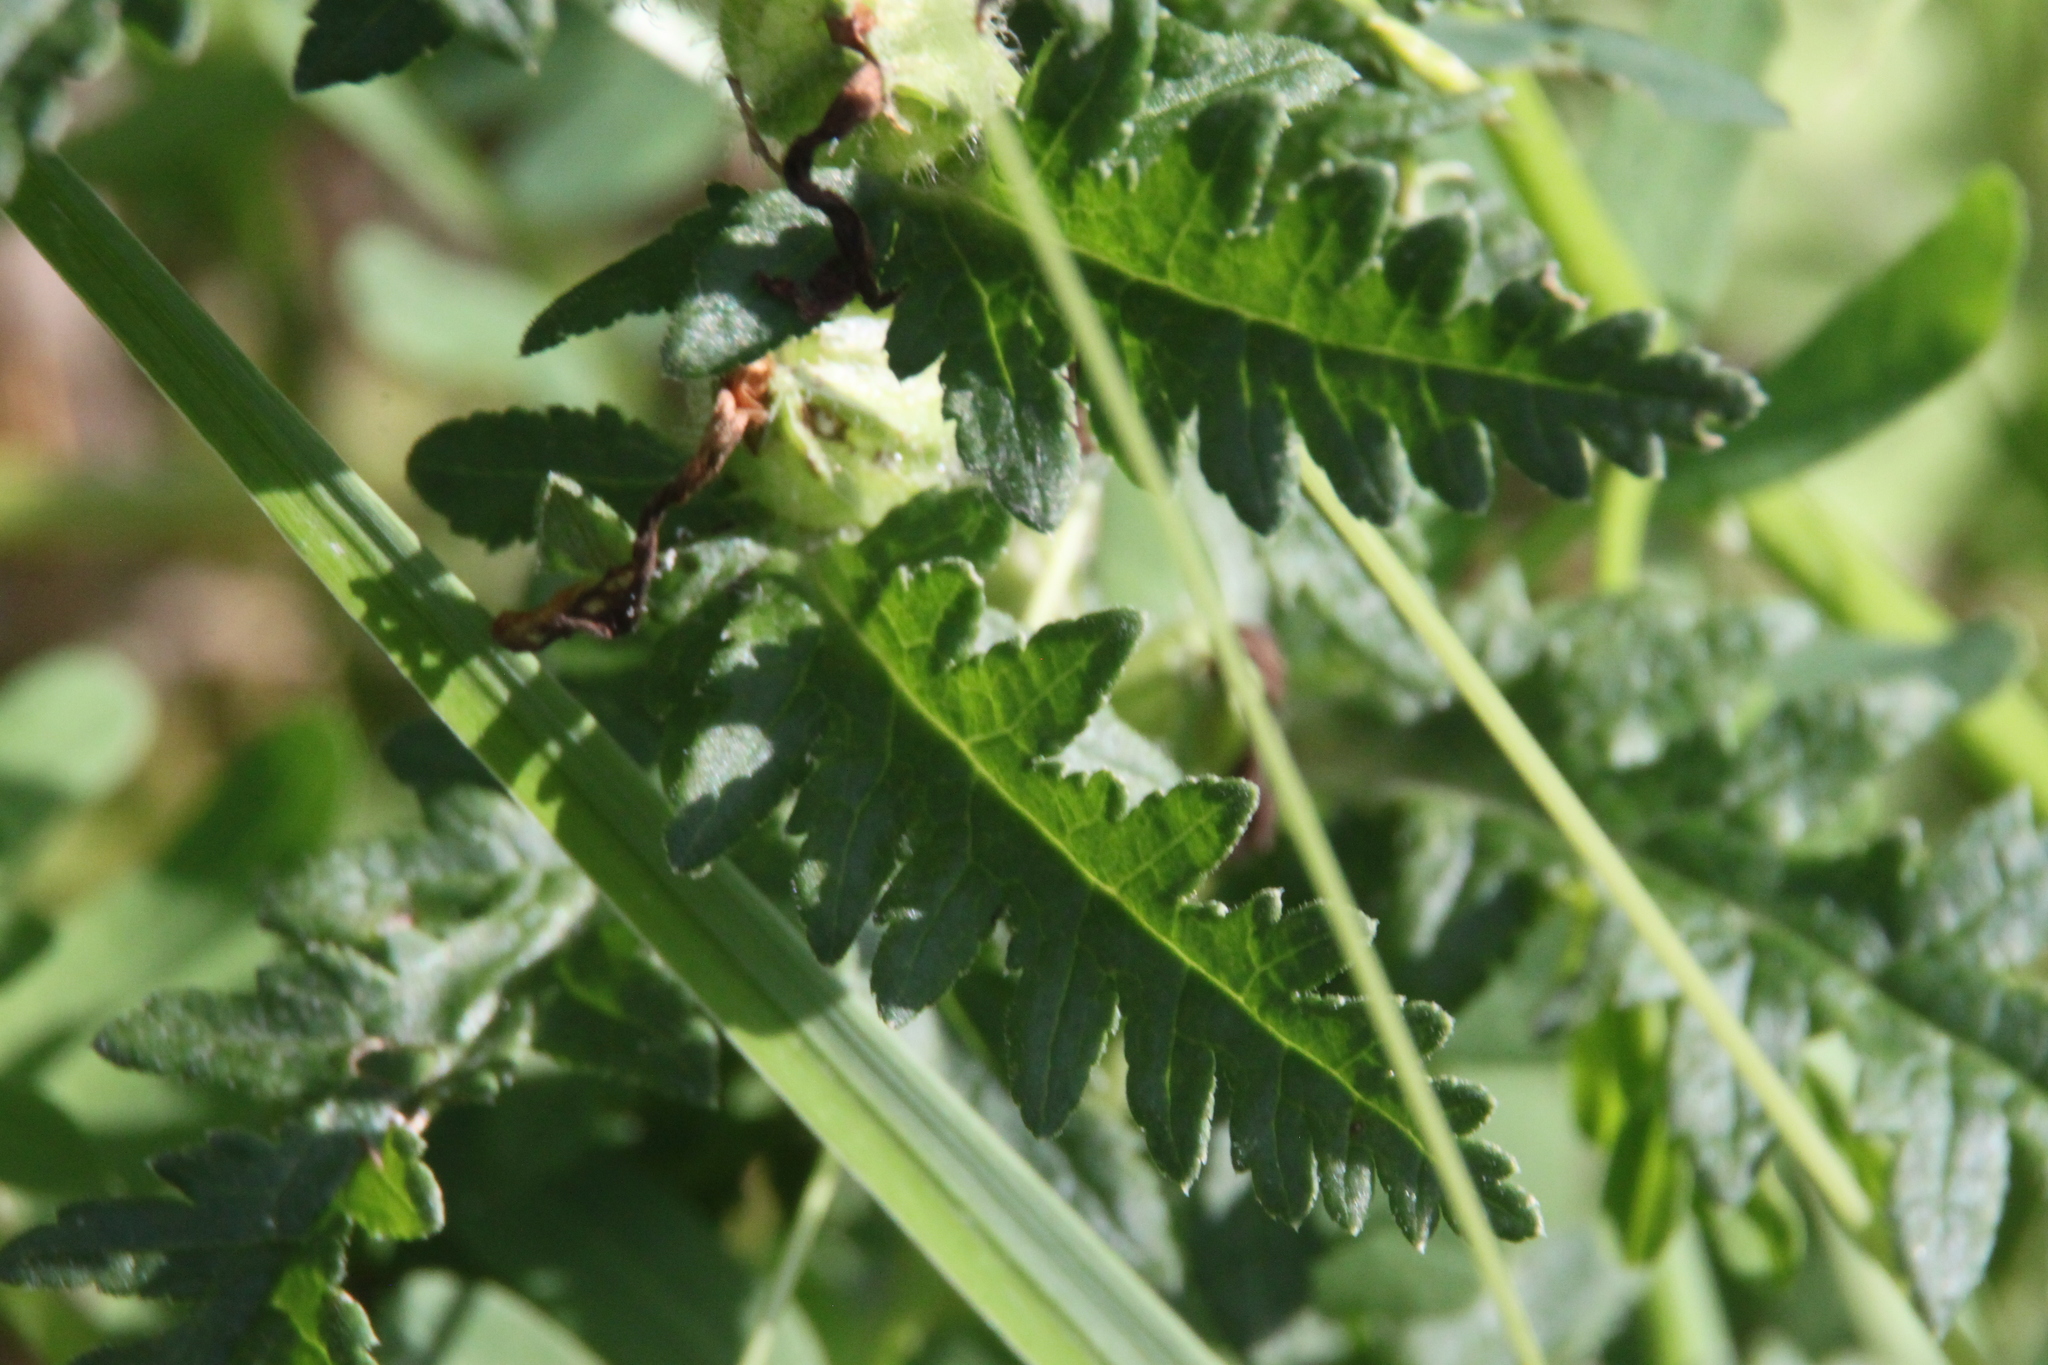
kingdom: Plantae
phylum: Tracheophyta
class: Magnoliopsida
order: Lamiales
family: Orobanchaceae
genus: Pedicularis
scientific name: Pedicularis kaufmannii
